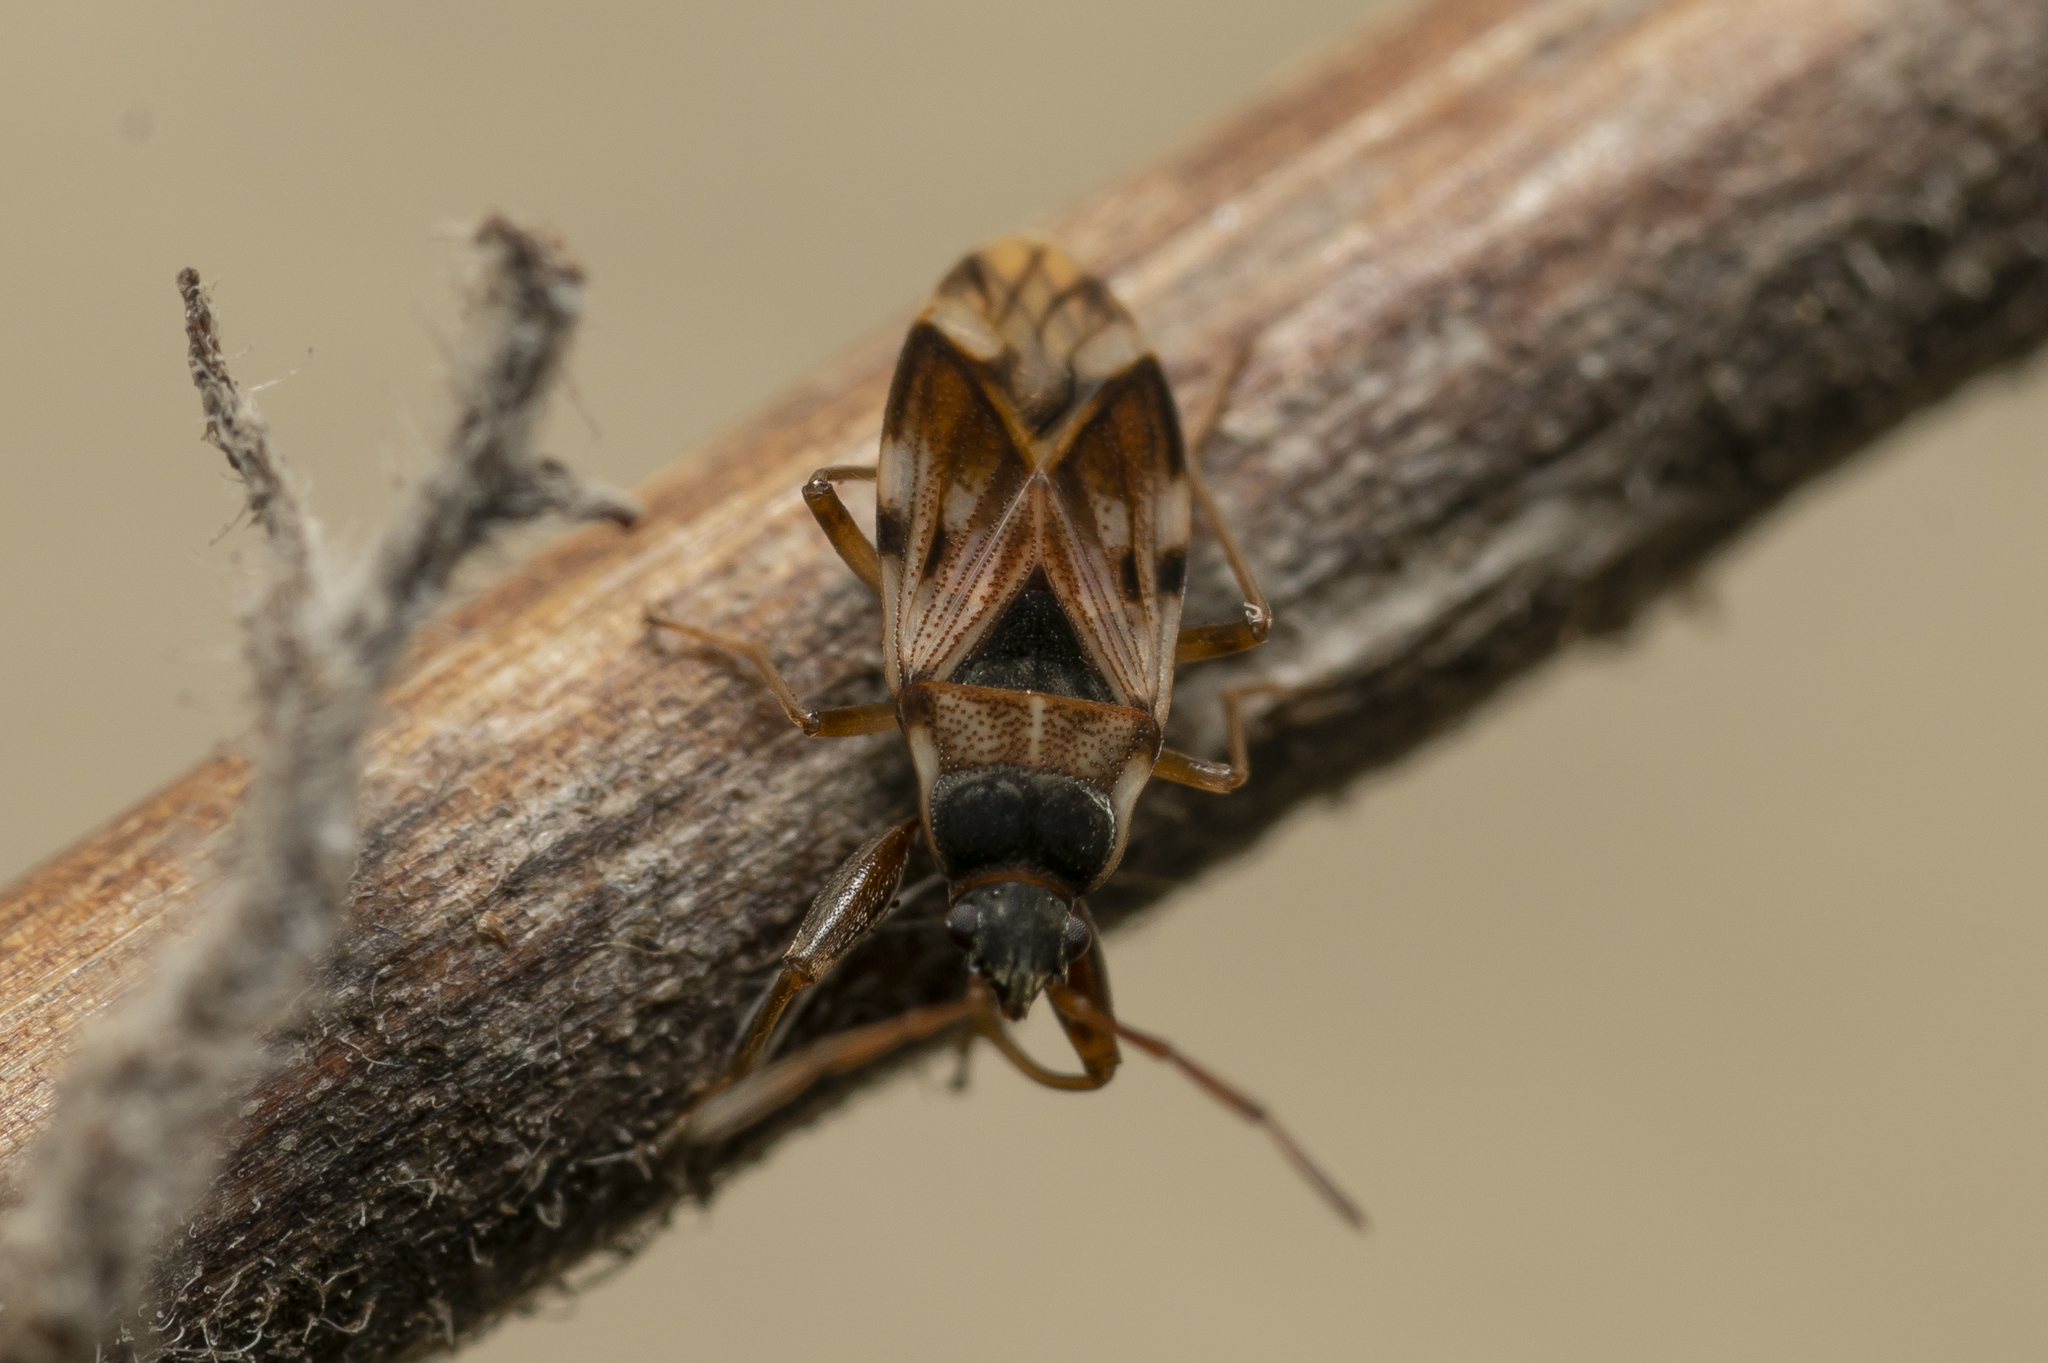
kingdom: Animalia
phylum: Arthropoda
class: Insecta
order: Hemiptera
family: Rhyparochromidae
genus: Scolopostethus
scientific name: Scolopostethus pictus
